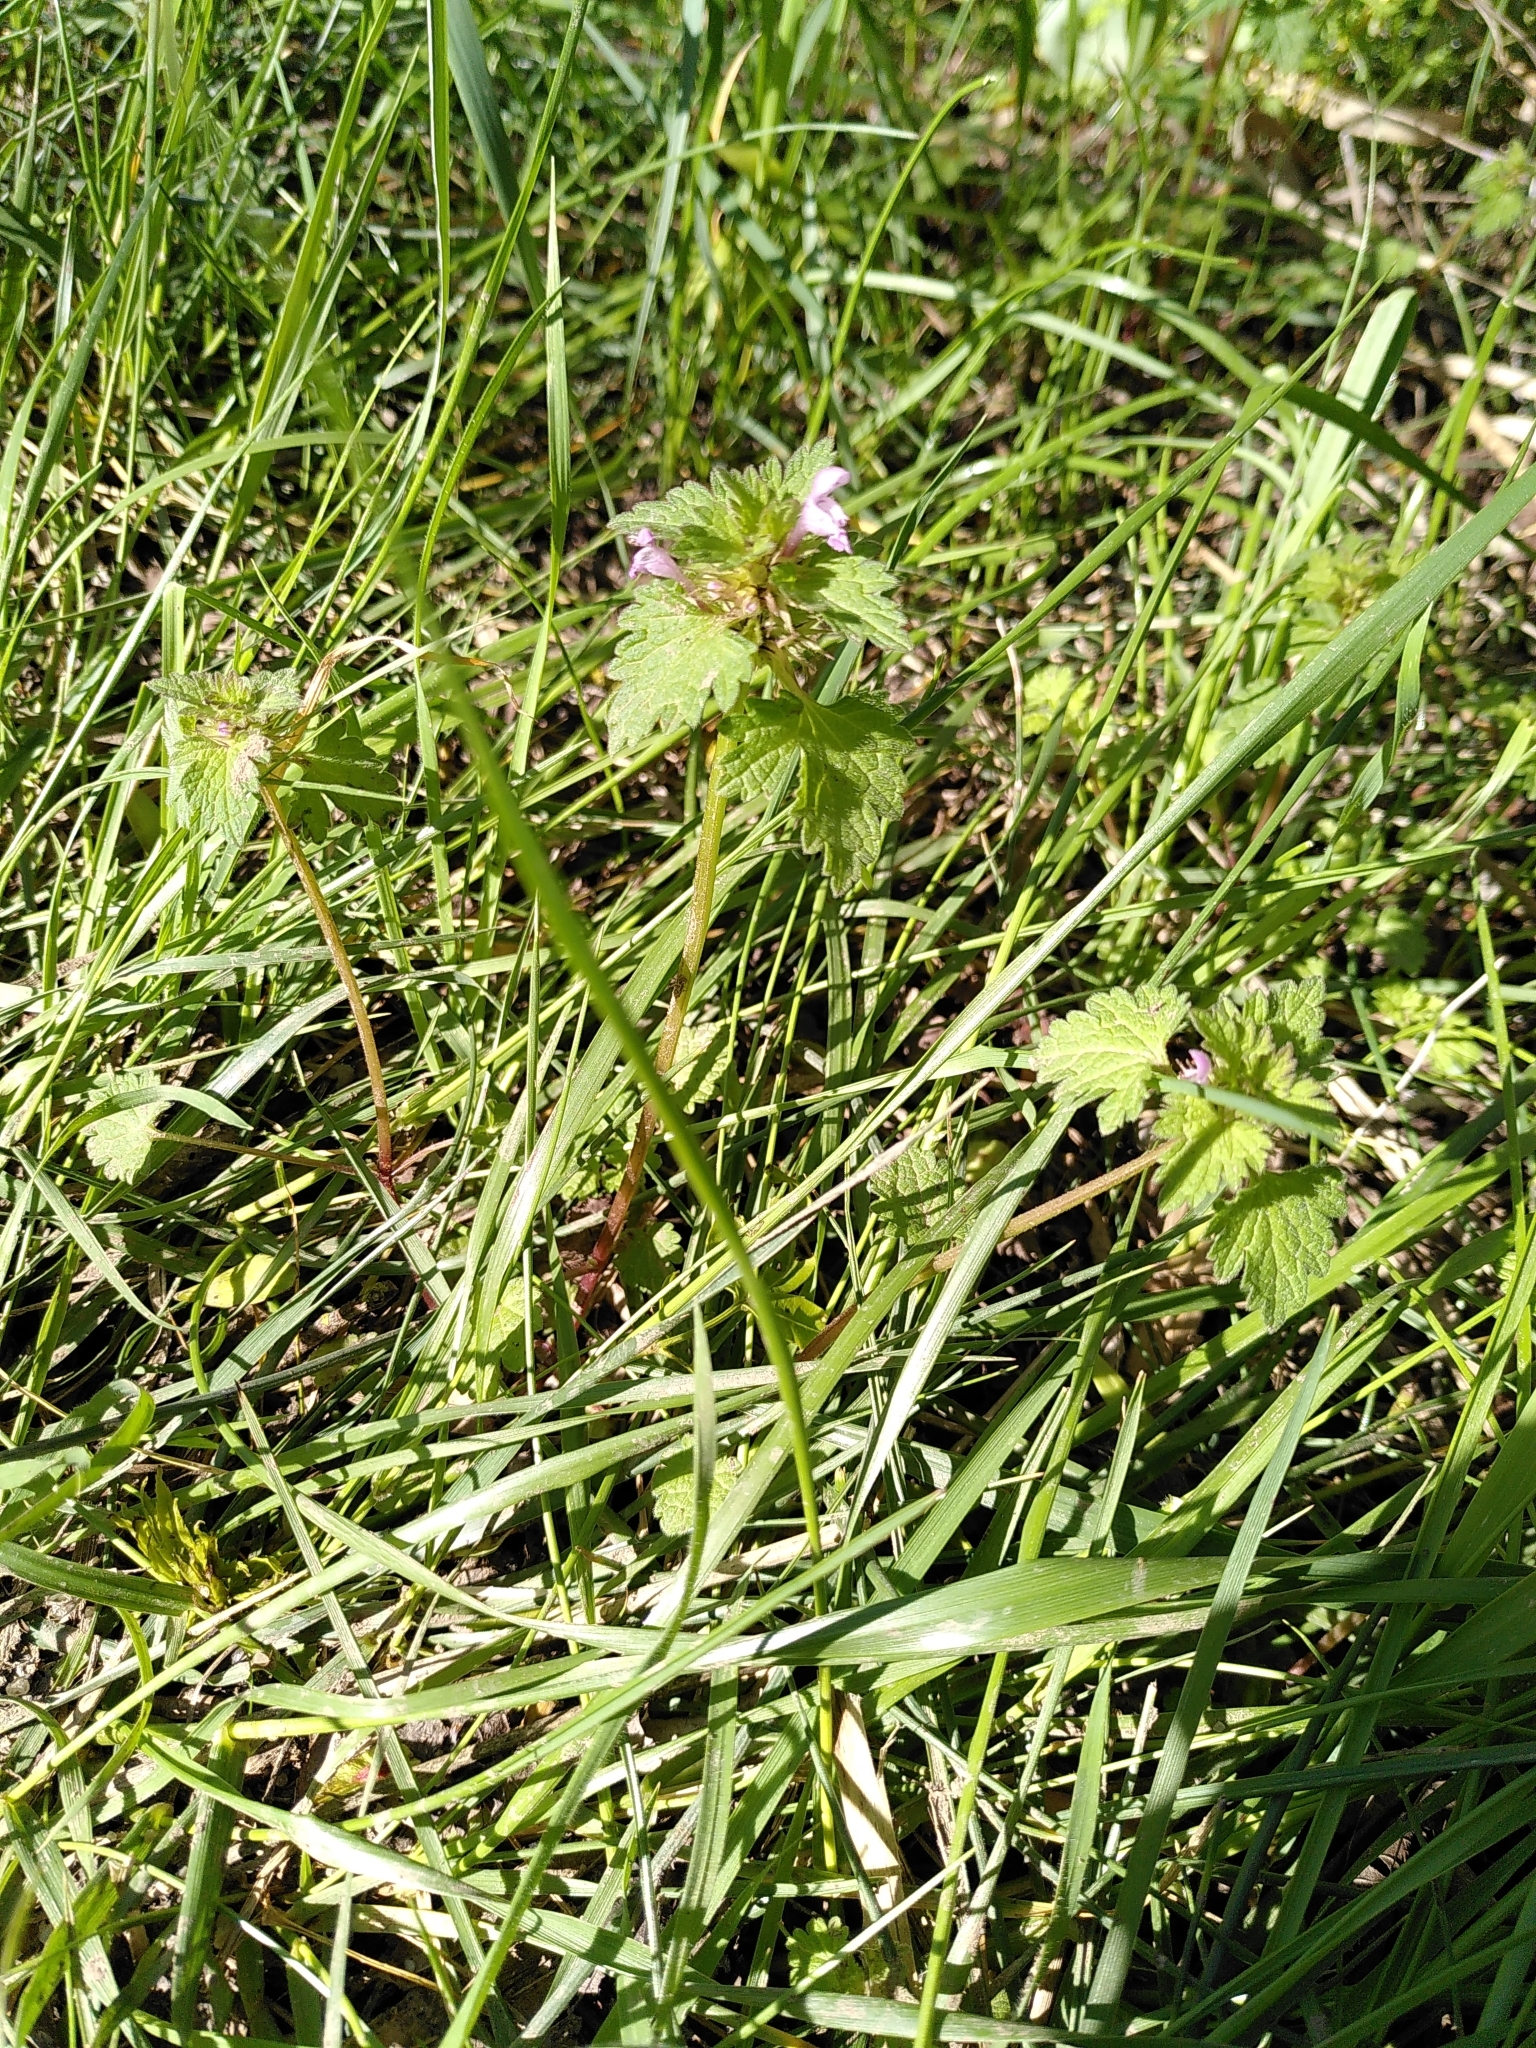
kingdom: Plantae
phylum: Tracheophyta
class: Magnoliopsida
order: Lamiales
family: Lamiaceae
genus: Lamium
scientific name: Lamium hybridum
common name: Cut-leaved dead-nettle
